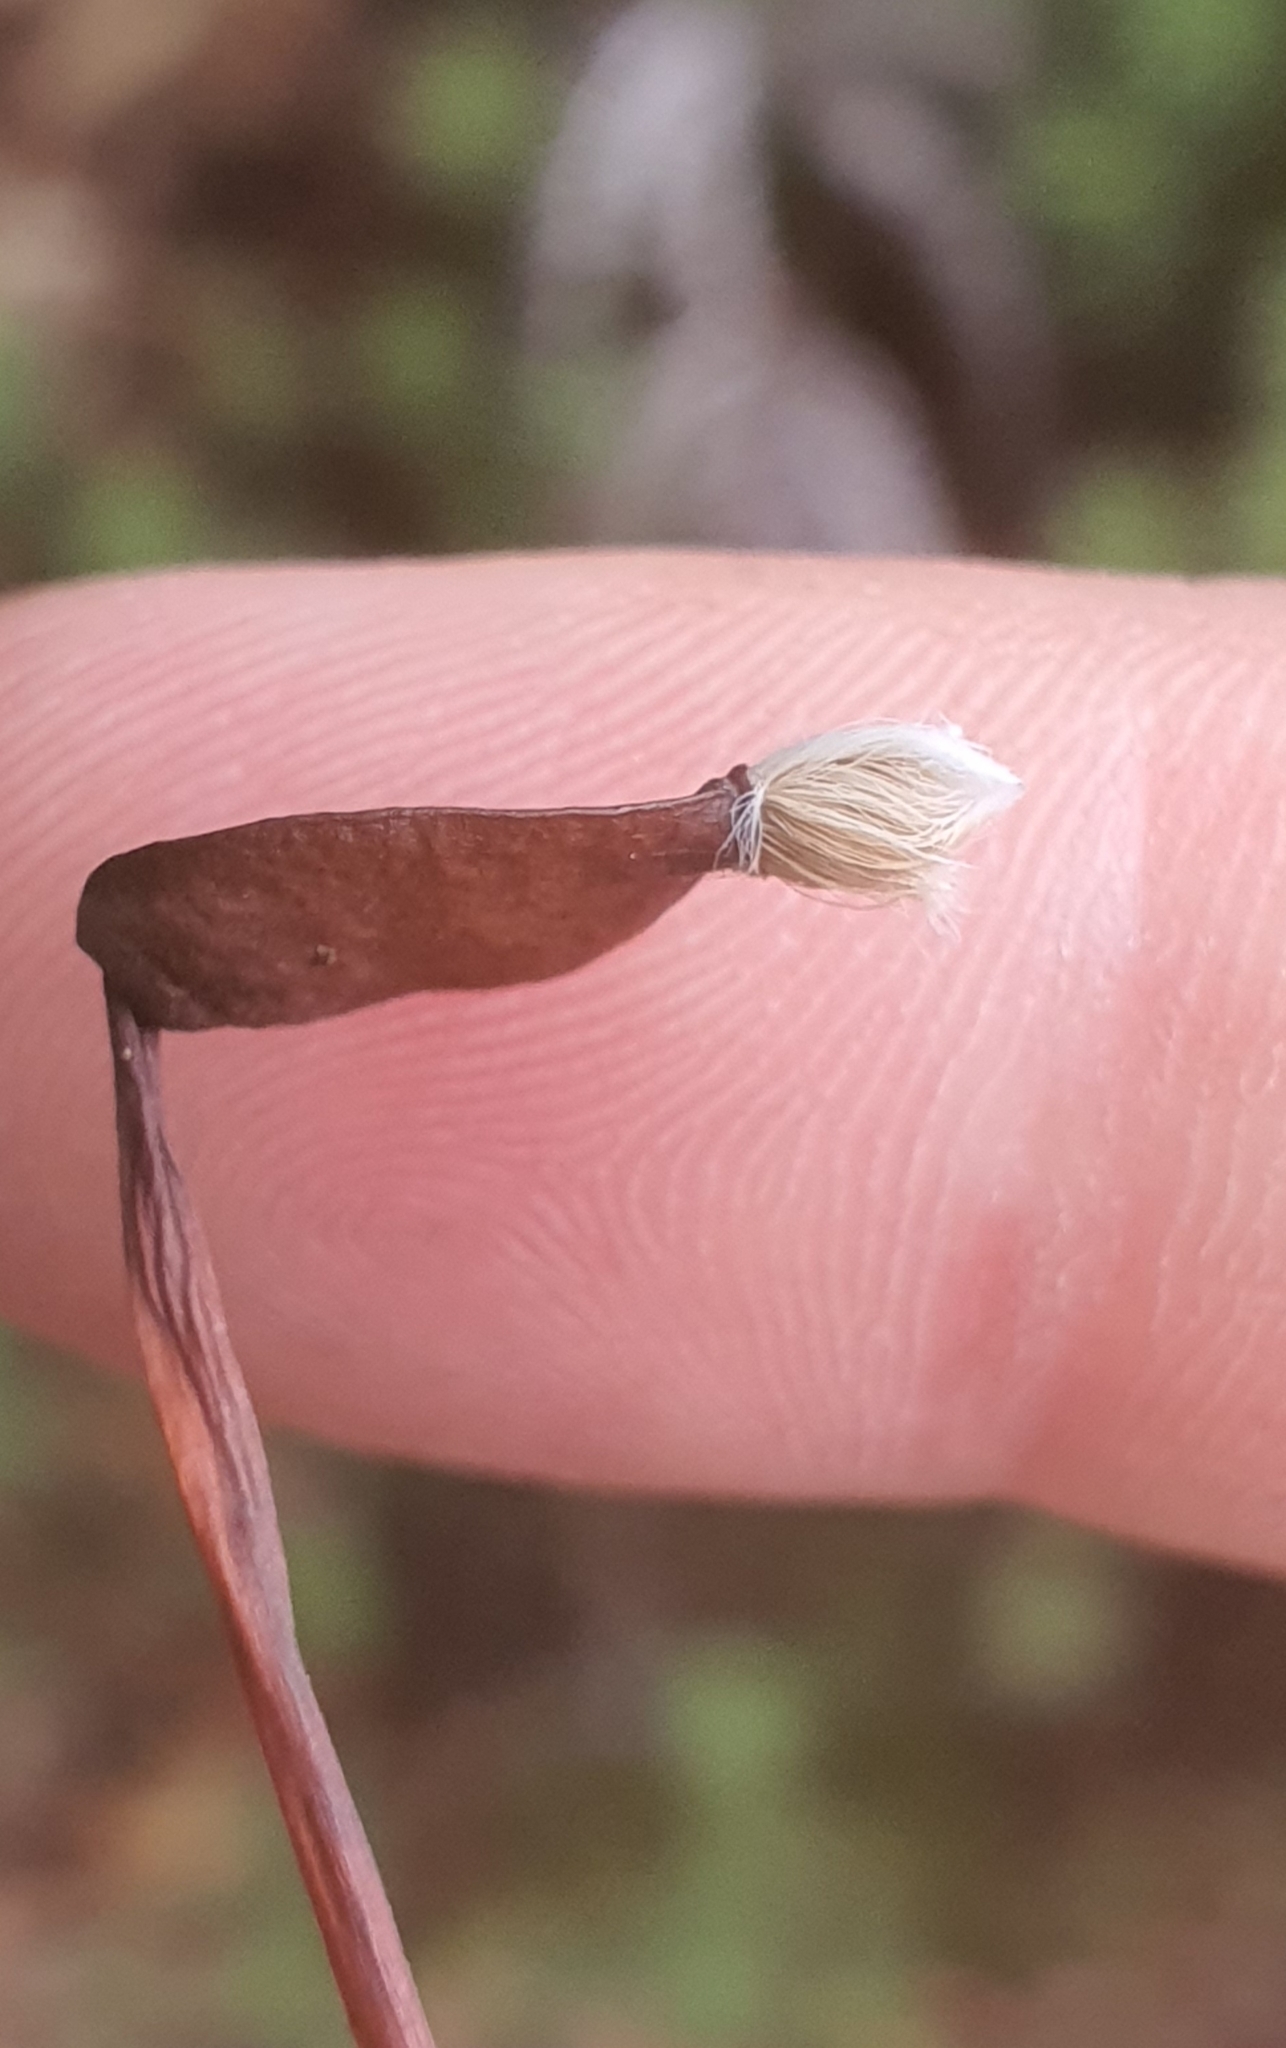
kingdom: Plantae
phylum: Bryophyta
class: Polytrichopsida
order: Polytrichales
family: Polytrichaceae
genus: Dawsonia
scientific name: Dawsonia superba
